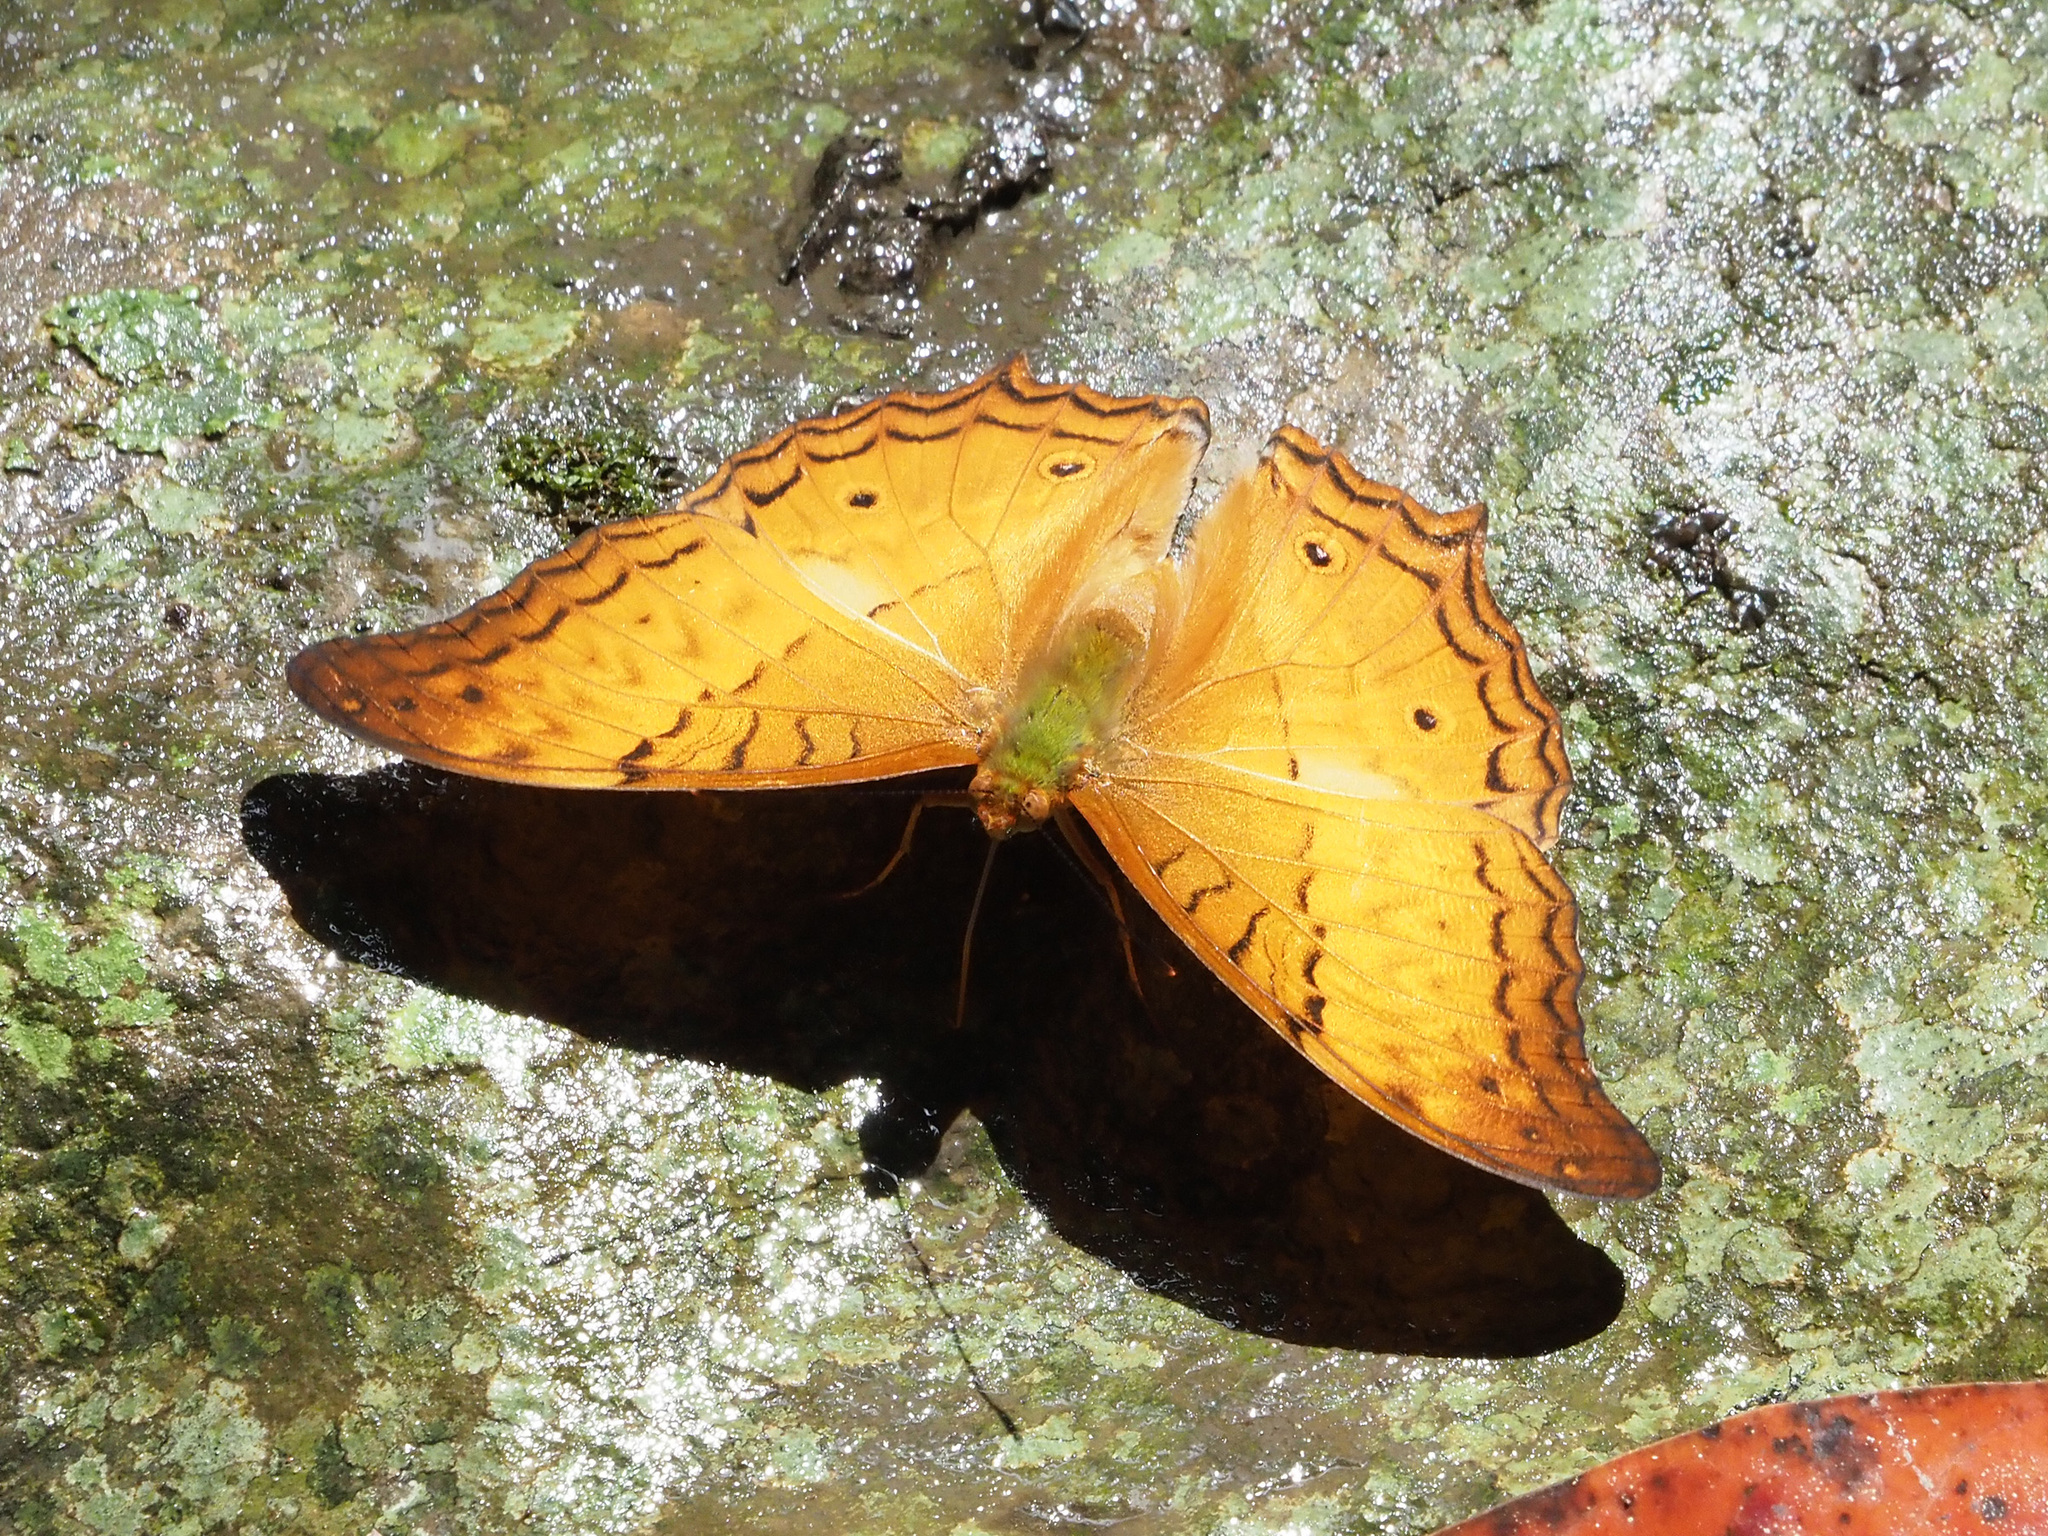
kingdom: Animalia
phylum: Arthropoda
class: Insecta
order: Lepidoptera
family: Nymphalidae
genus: Vindula
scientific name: Vindula deione
